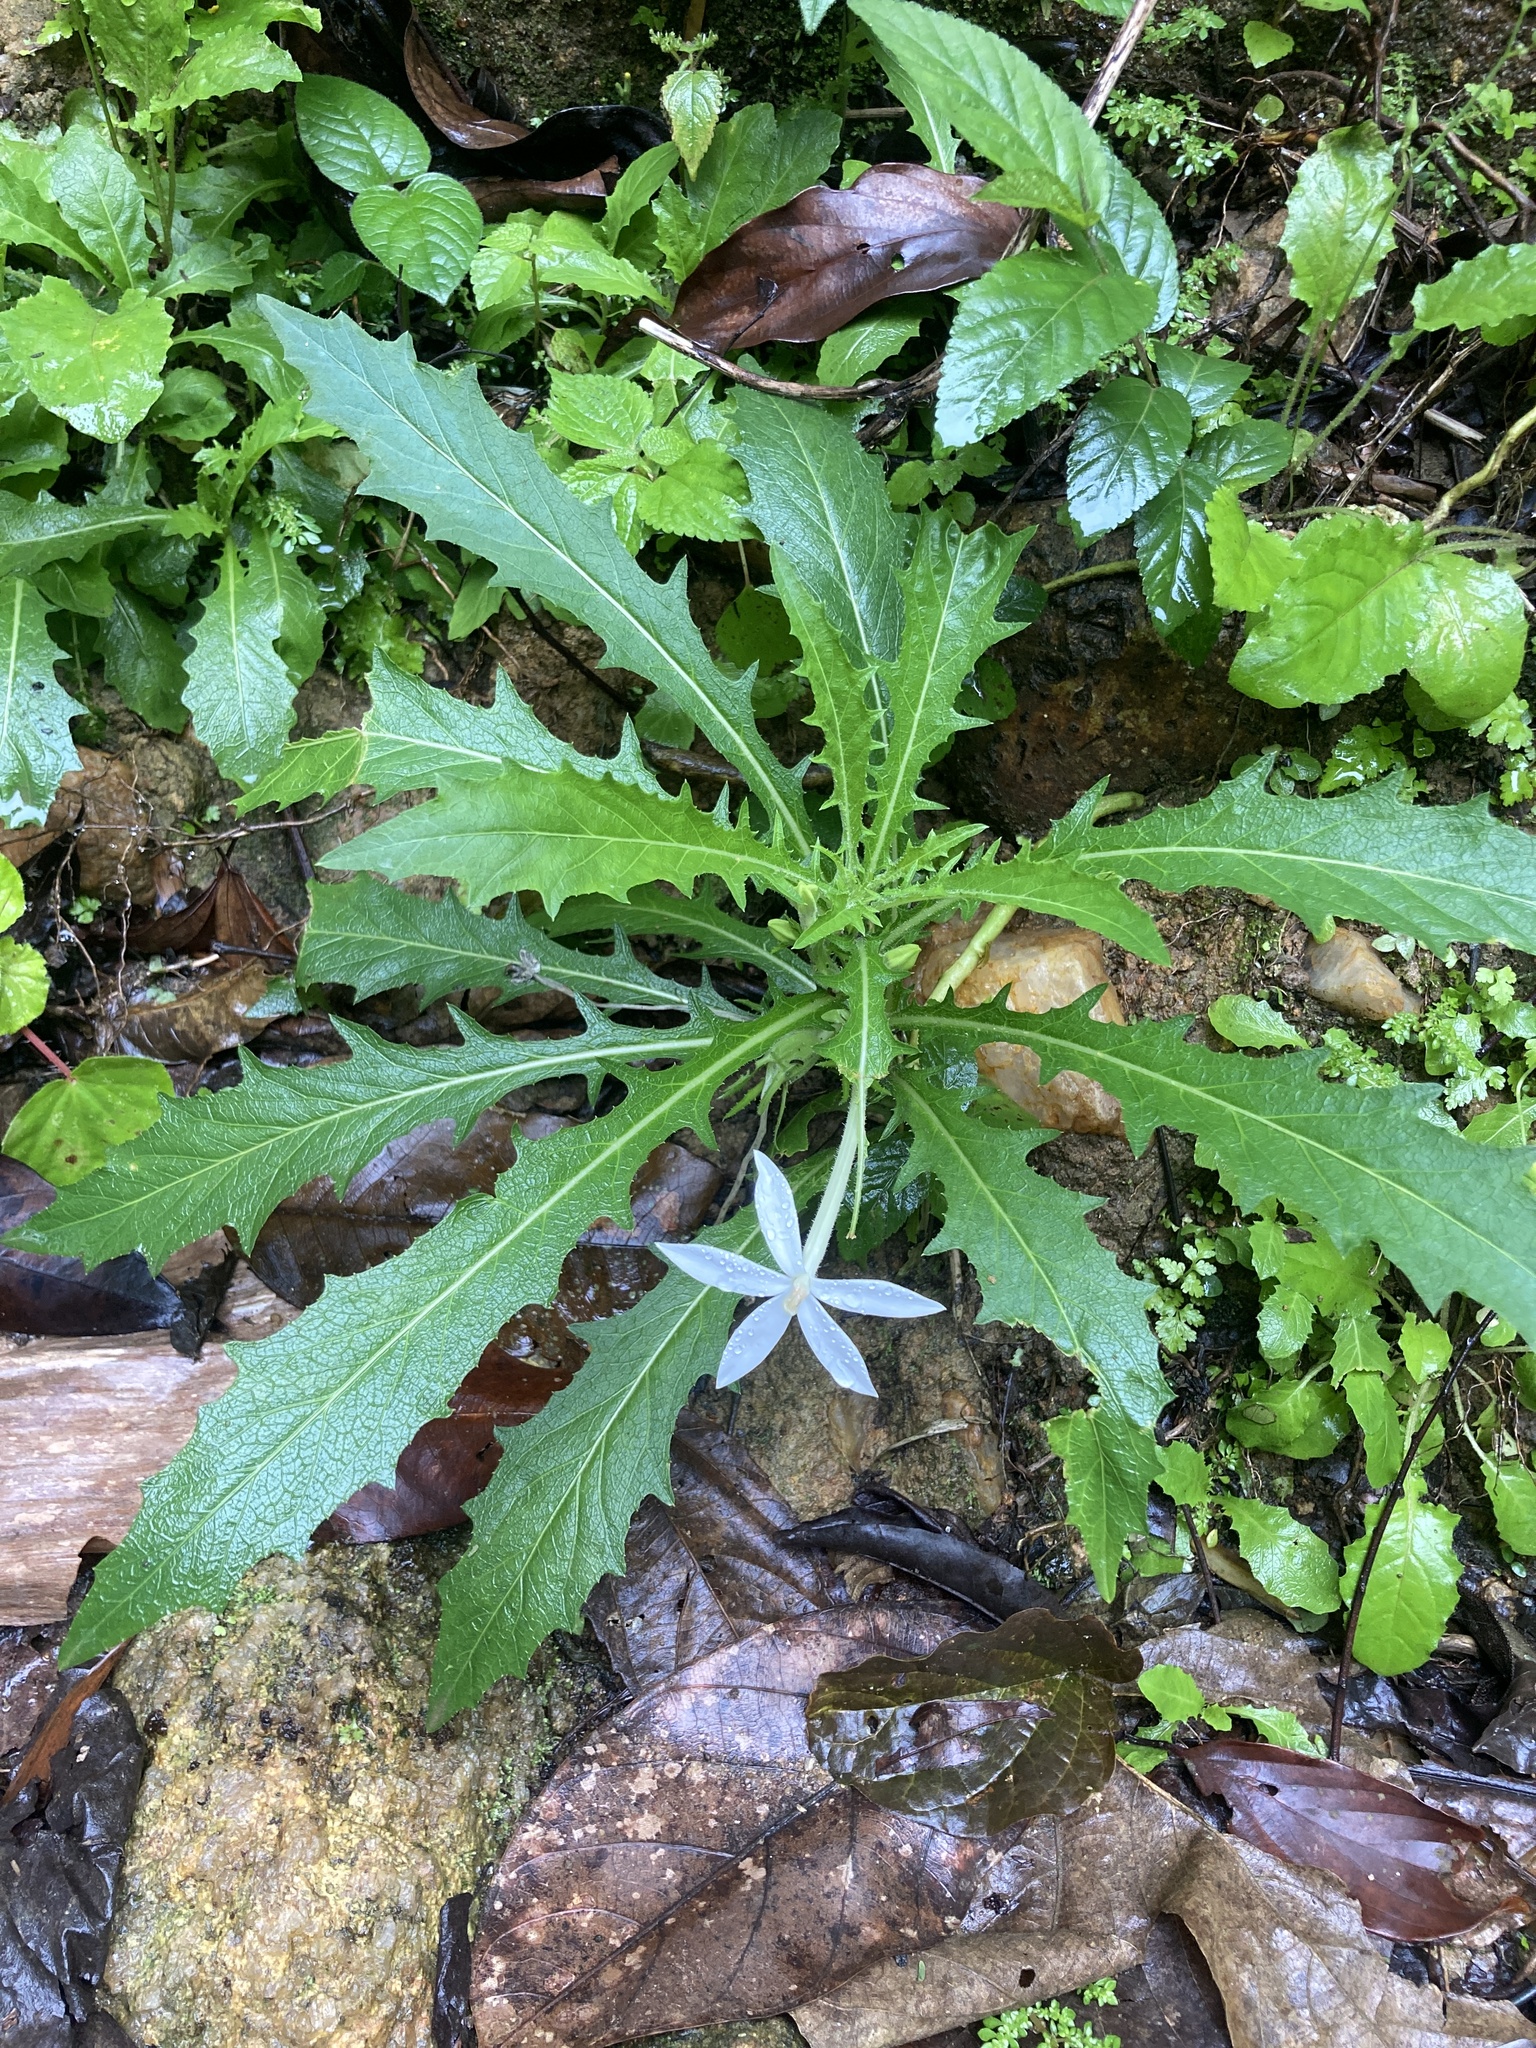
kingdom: Plantae
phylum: Tracheophyta
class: Magnoliopsida
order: Asterales
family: Campanulaceae
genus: Hippobroma
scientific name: Hippobroma longiflora
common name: Madamfate
